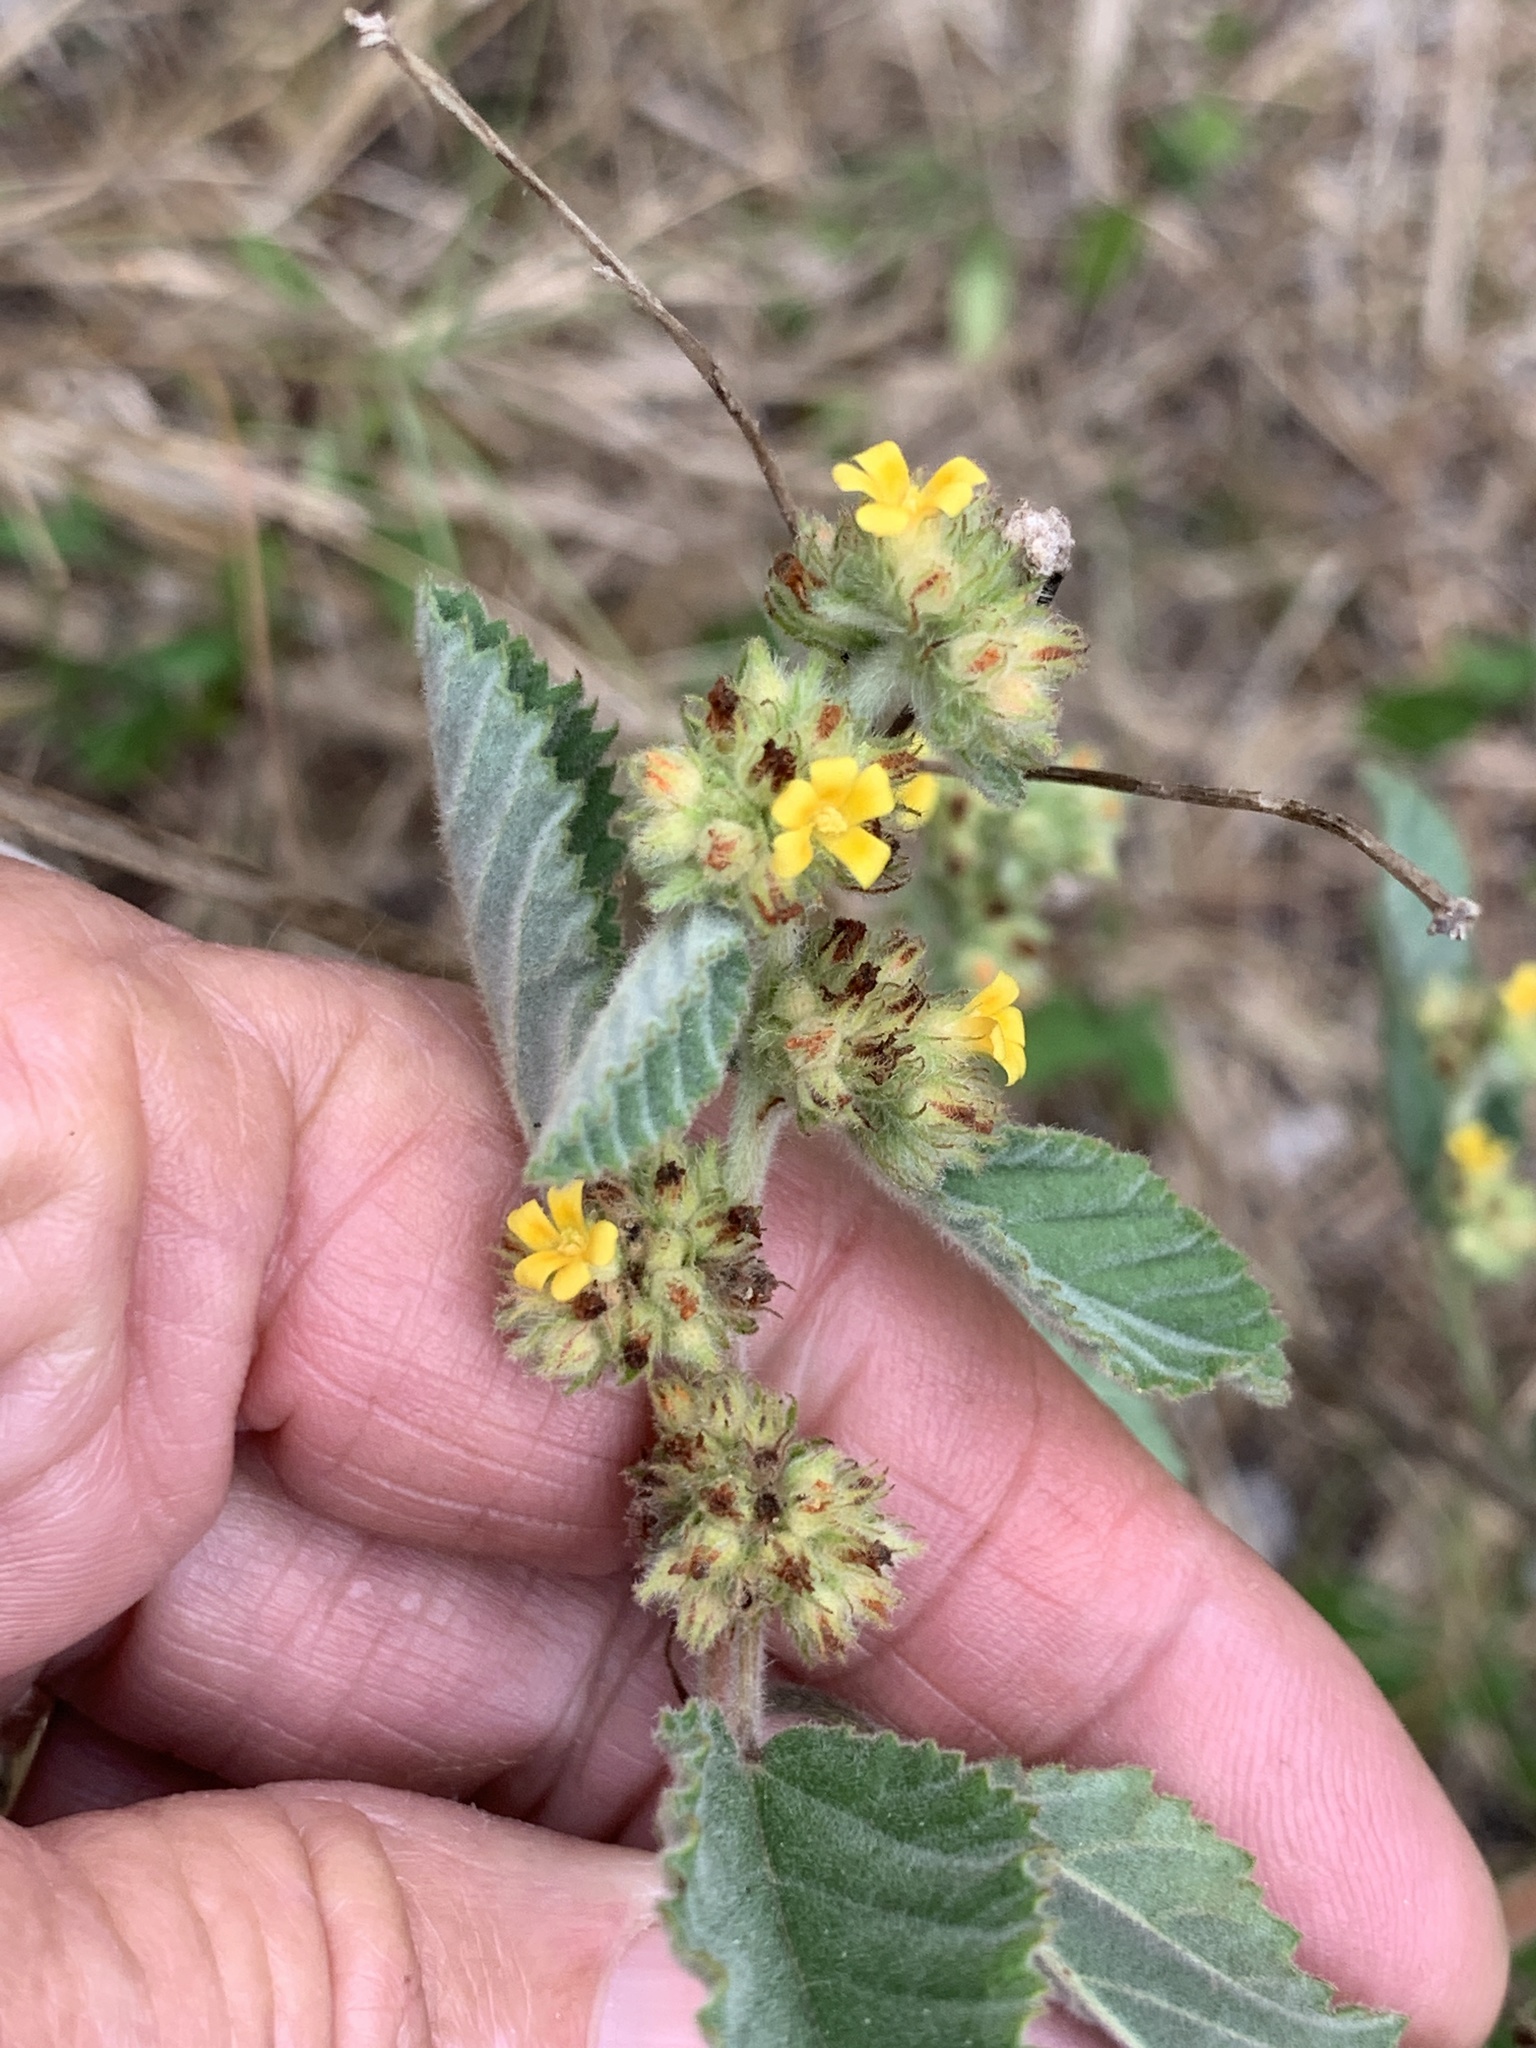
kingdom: Plantae
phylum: Tracheophyta
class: Magnoliopsida
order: Malvales
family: Malvaceae
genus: Waltheria
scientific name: Waltheria indica
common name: Leather-coat
